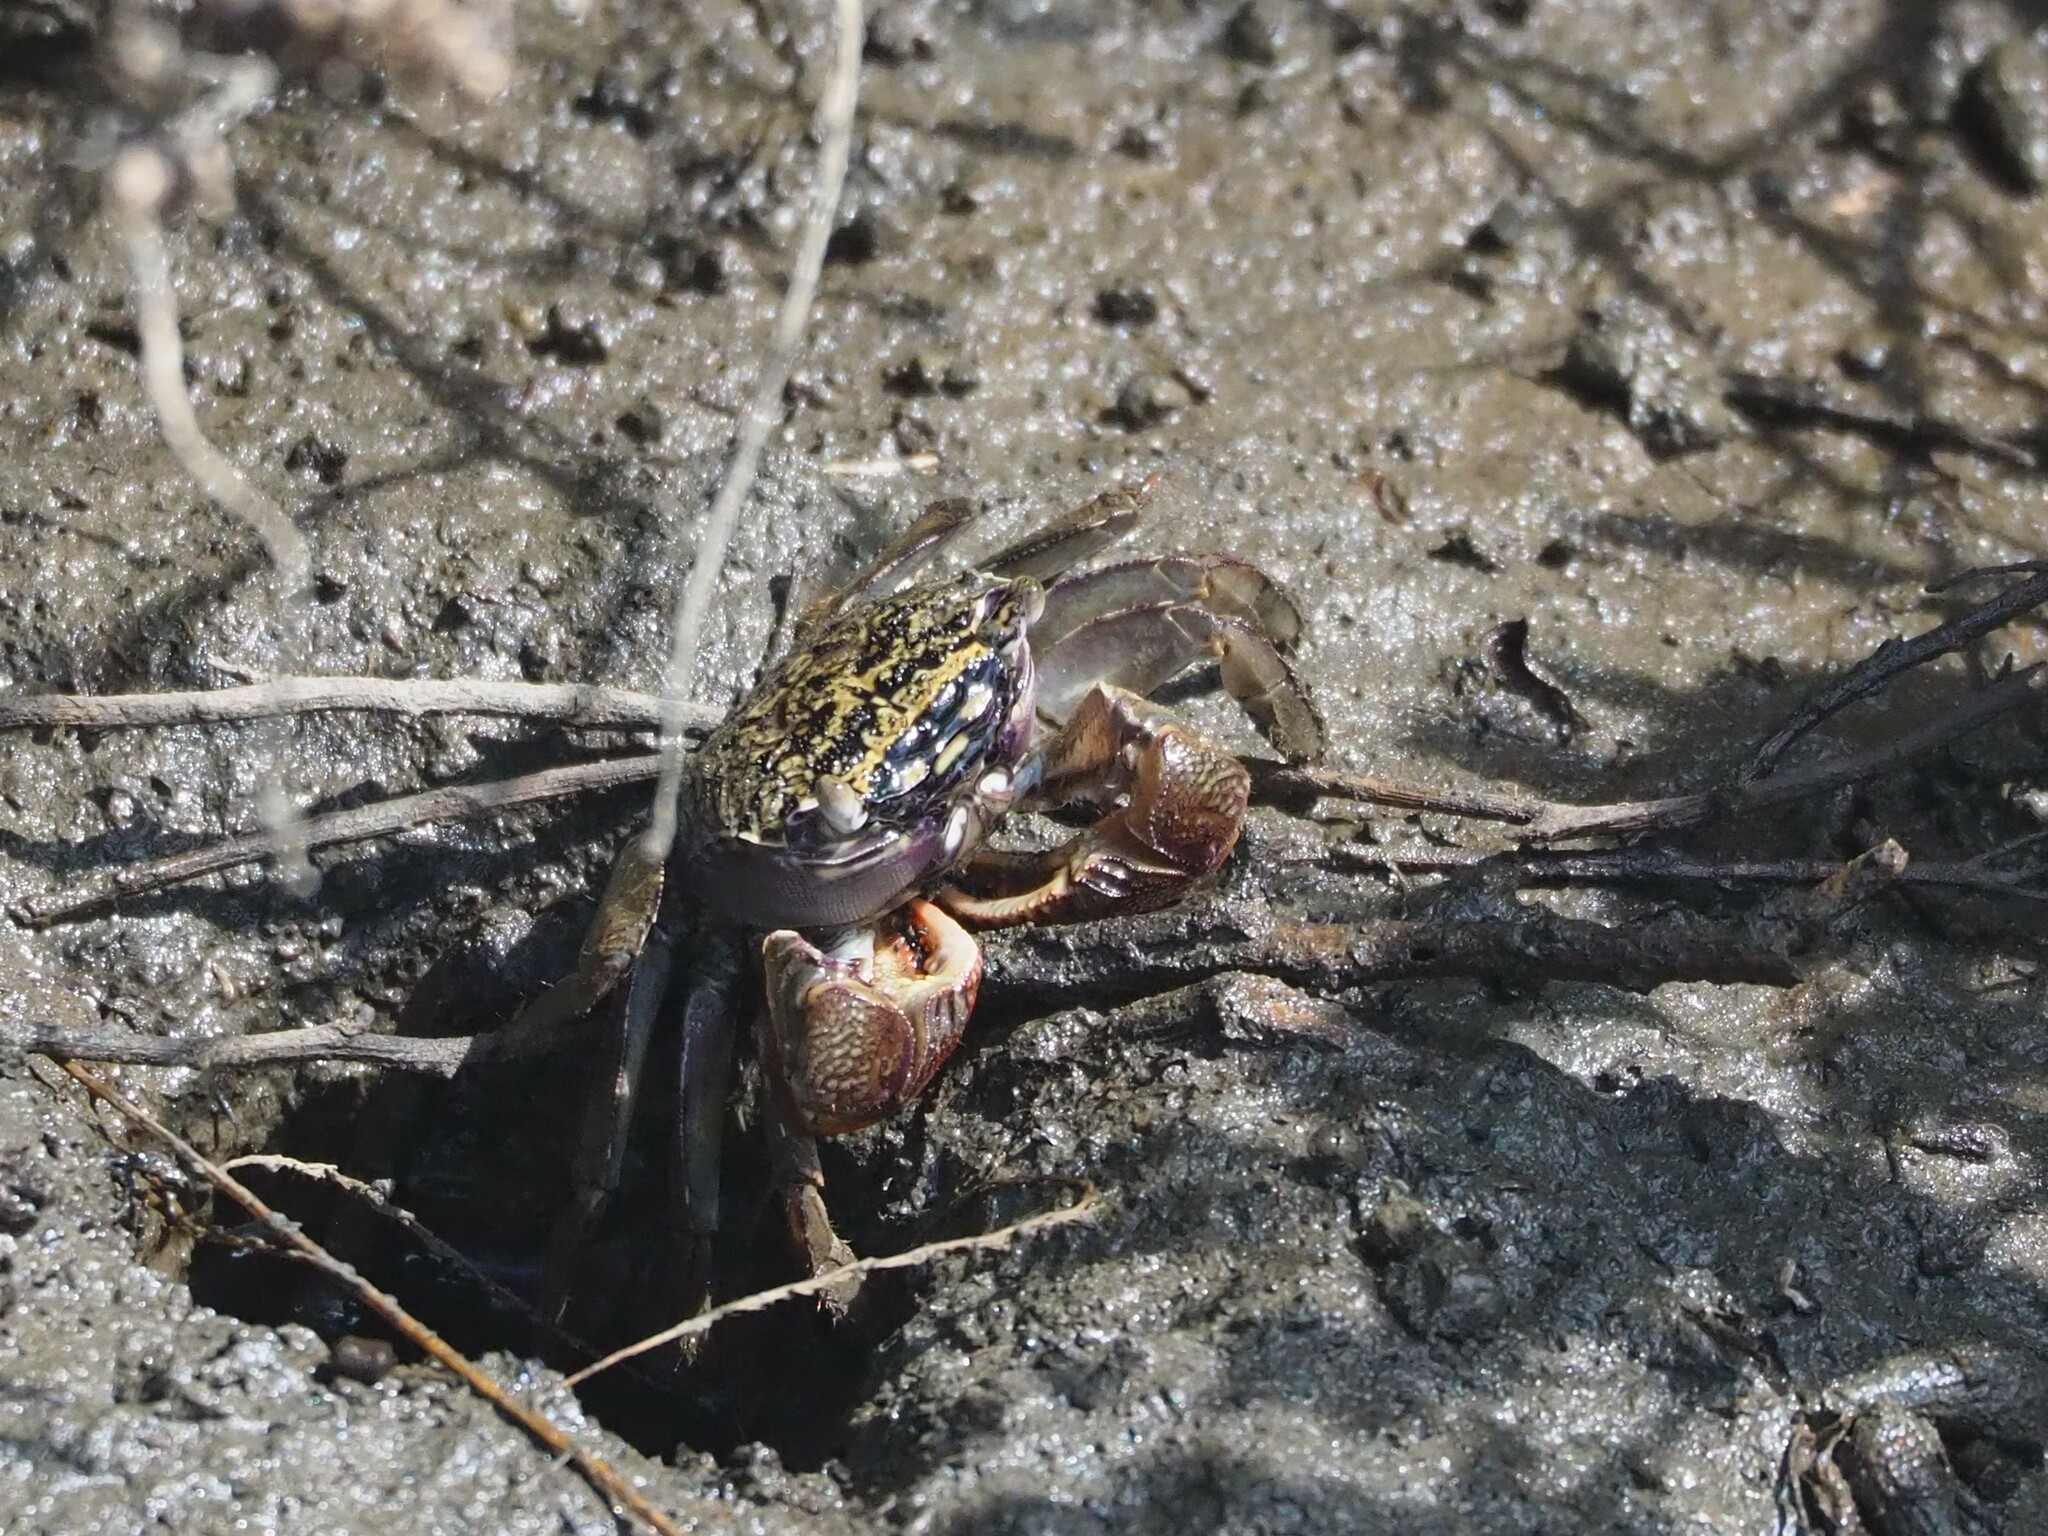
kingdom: Animalia
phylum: Arthropoda
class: Malacostraca
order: Decapoda
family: Sesarmidae
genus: Parasesarma
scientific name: Parasesarma affine
